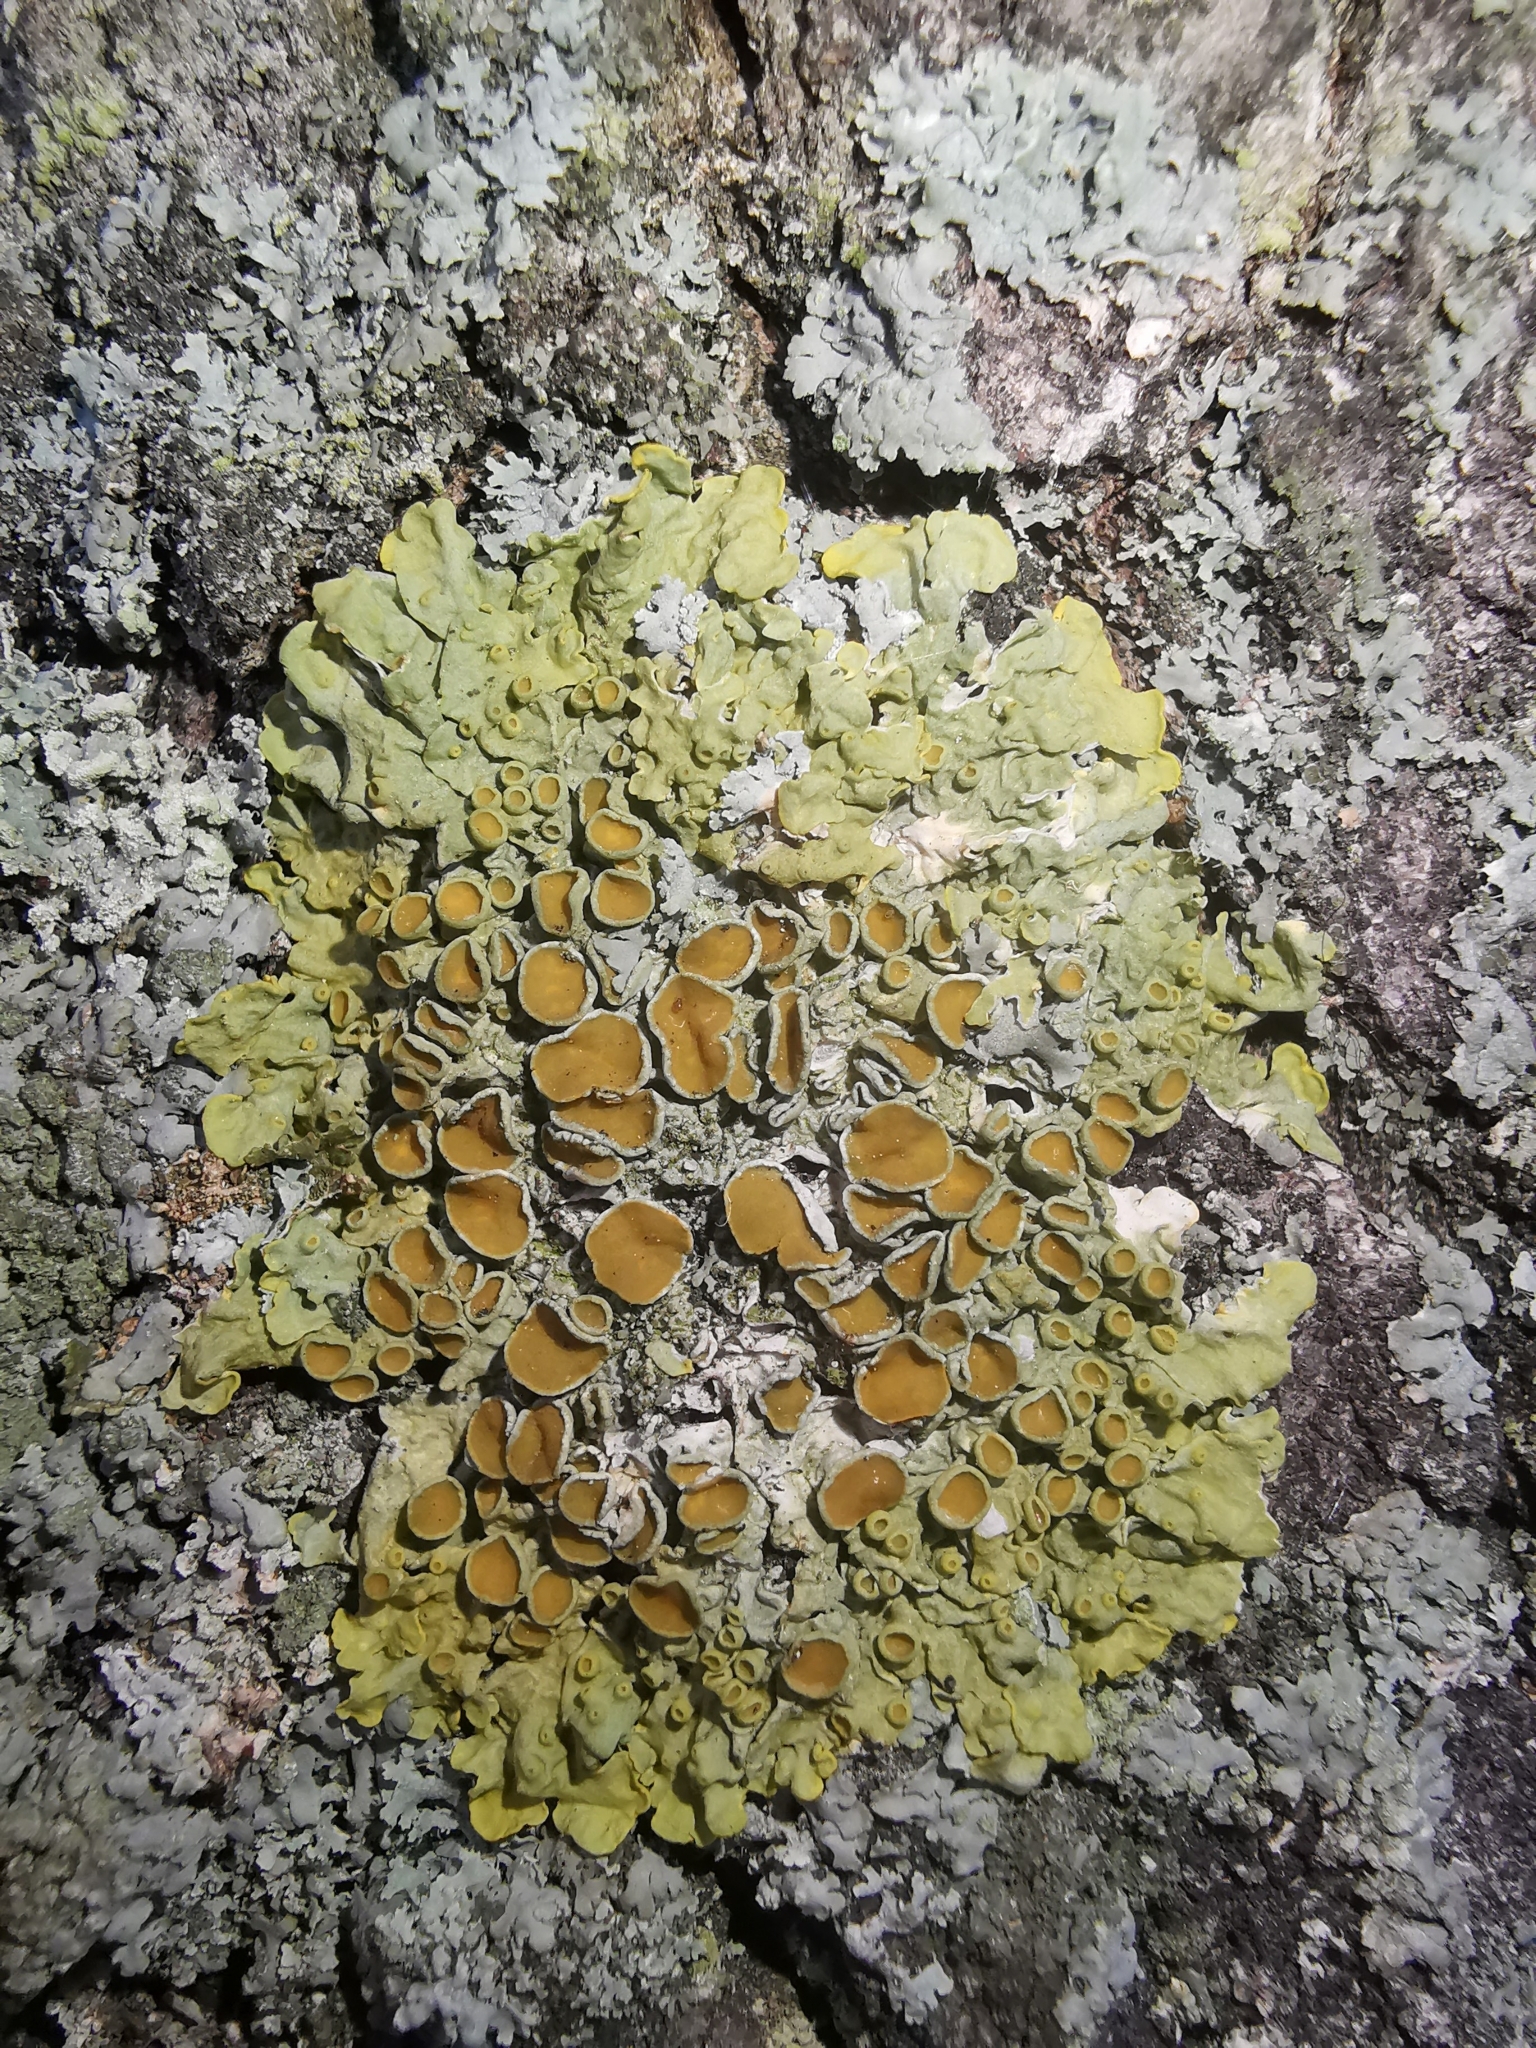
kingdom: Fungi
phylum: Ascomycota
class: Lecanoromycetes
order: Teloschistales
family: Teloschistaceae
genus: Xanthoria
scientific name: Xanthoria parietina
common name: Common orange lichen
